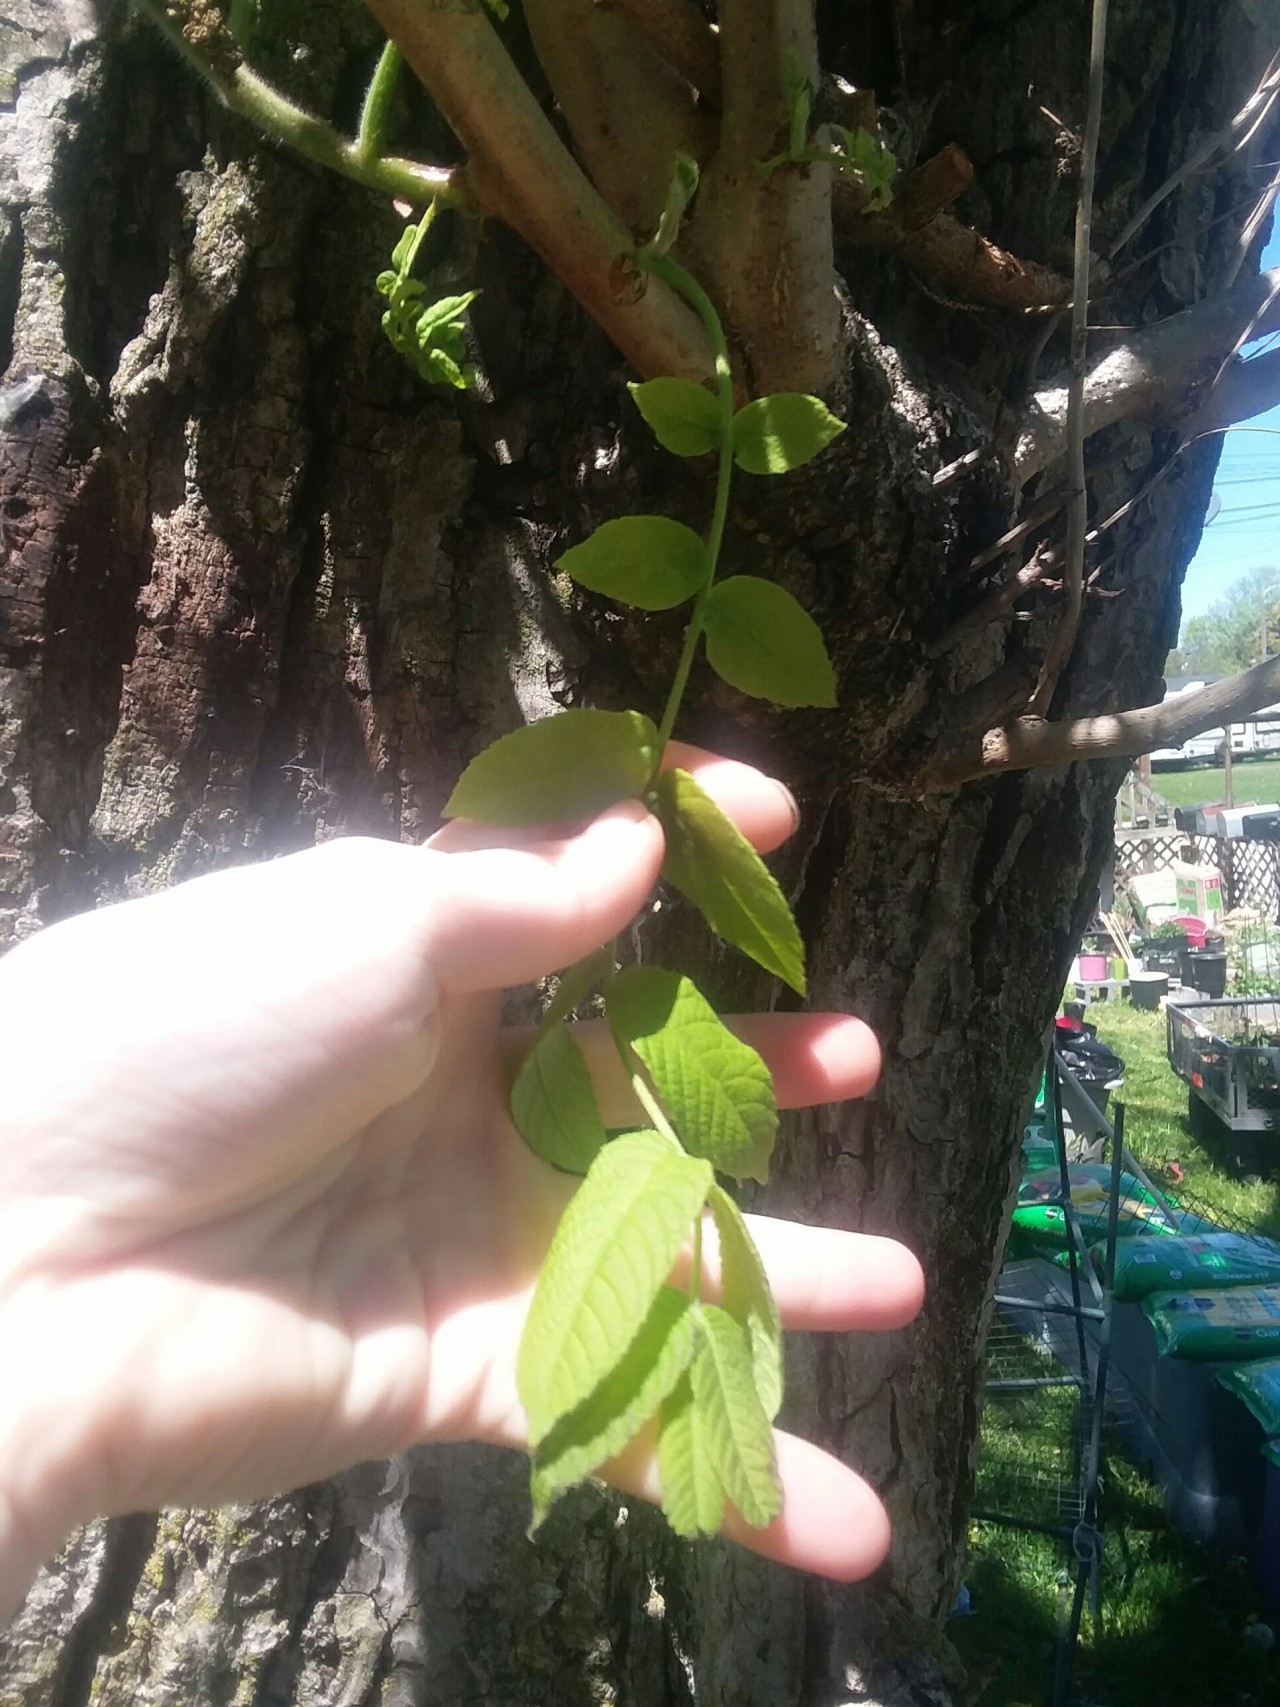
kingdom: Plantae
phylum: Tracheophyta
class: Magnoliopsida
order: Fagales
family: Juglandaceae
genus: Juglans
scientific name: Juglans cinerea
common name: Butternut
